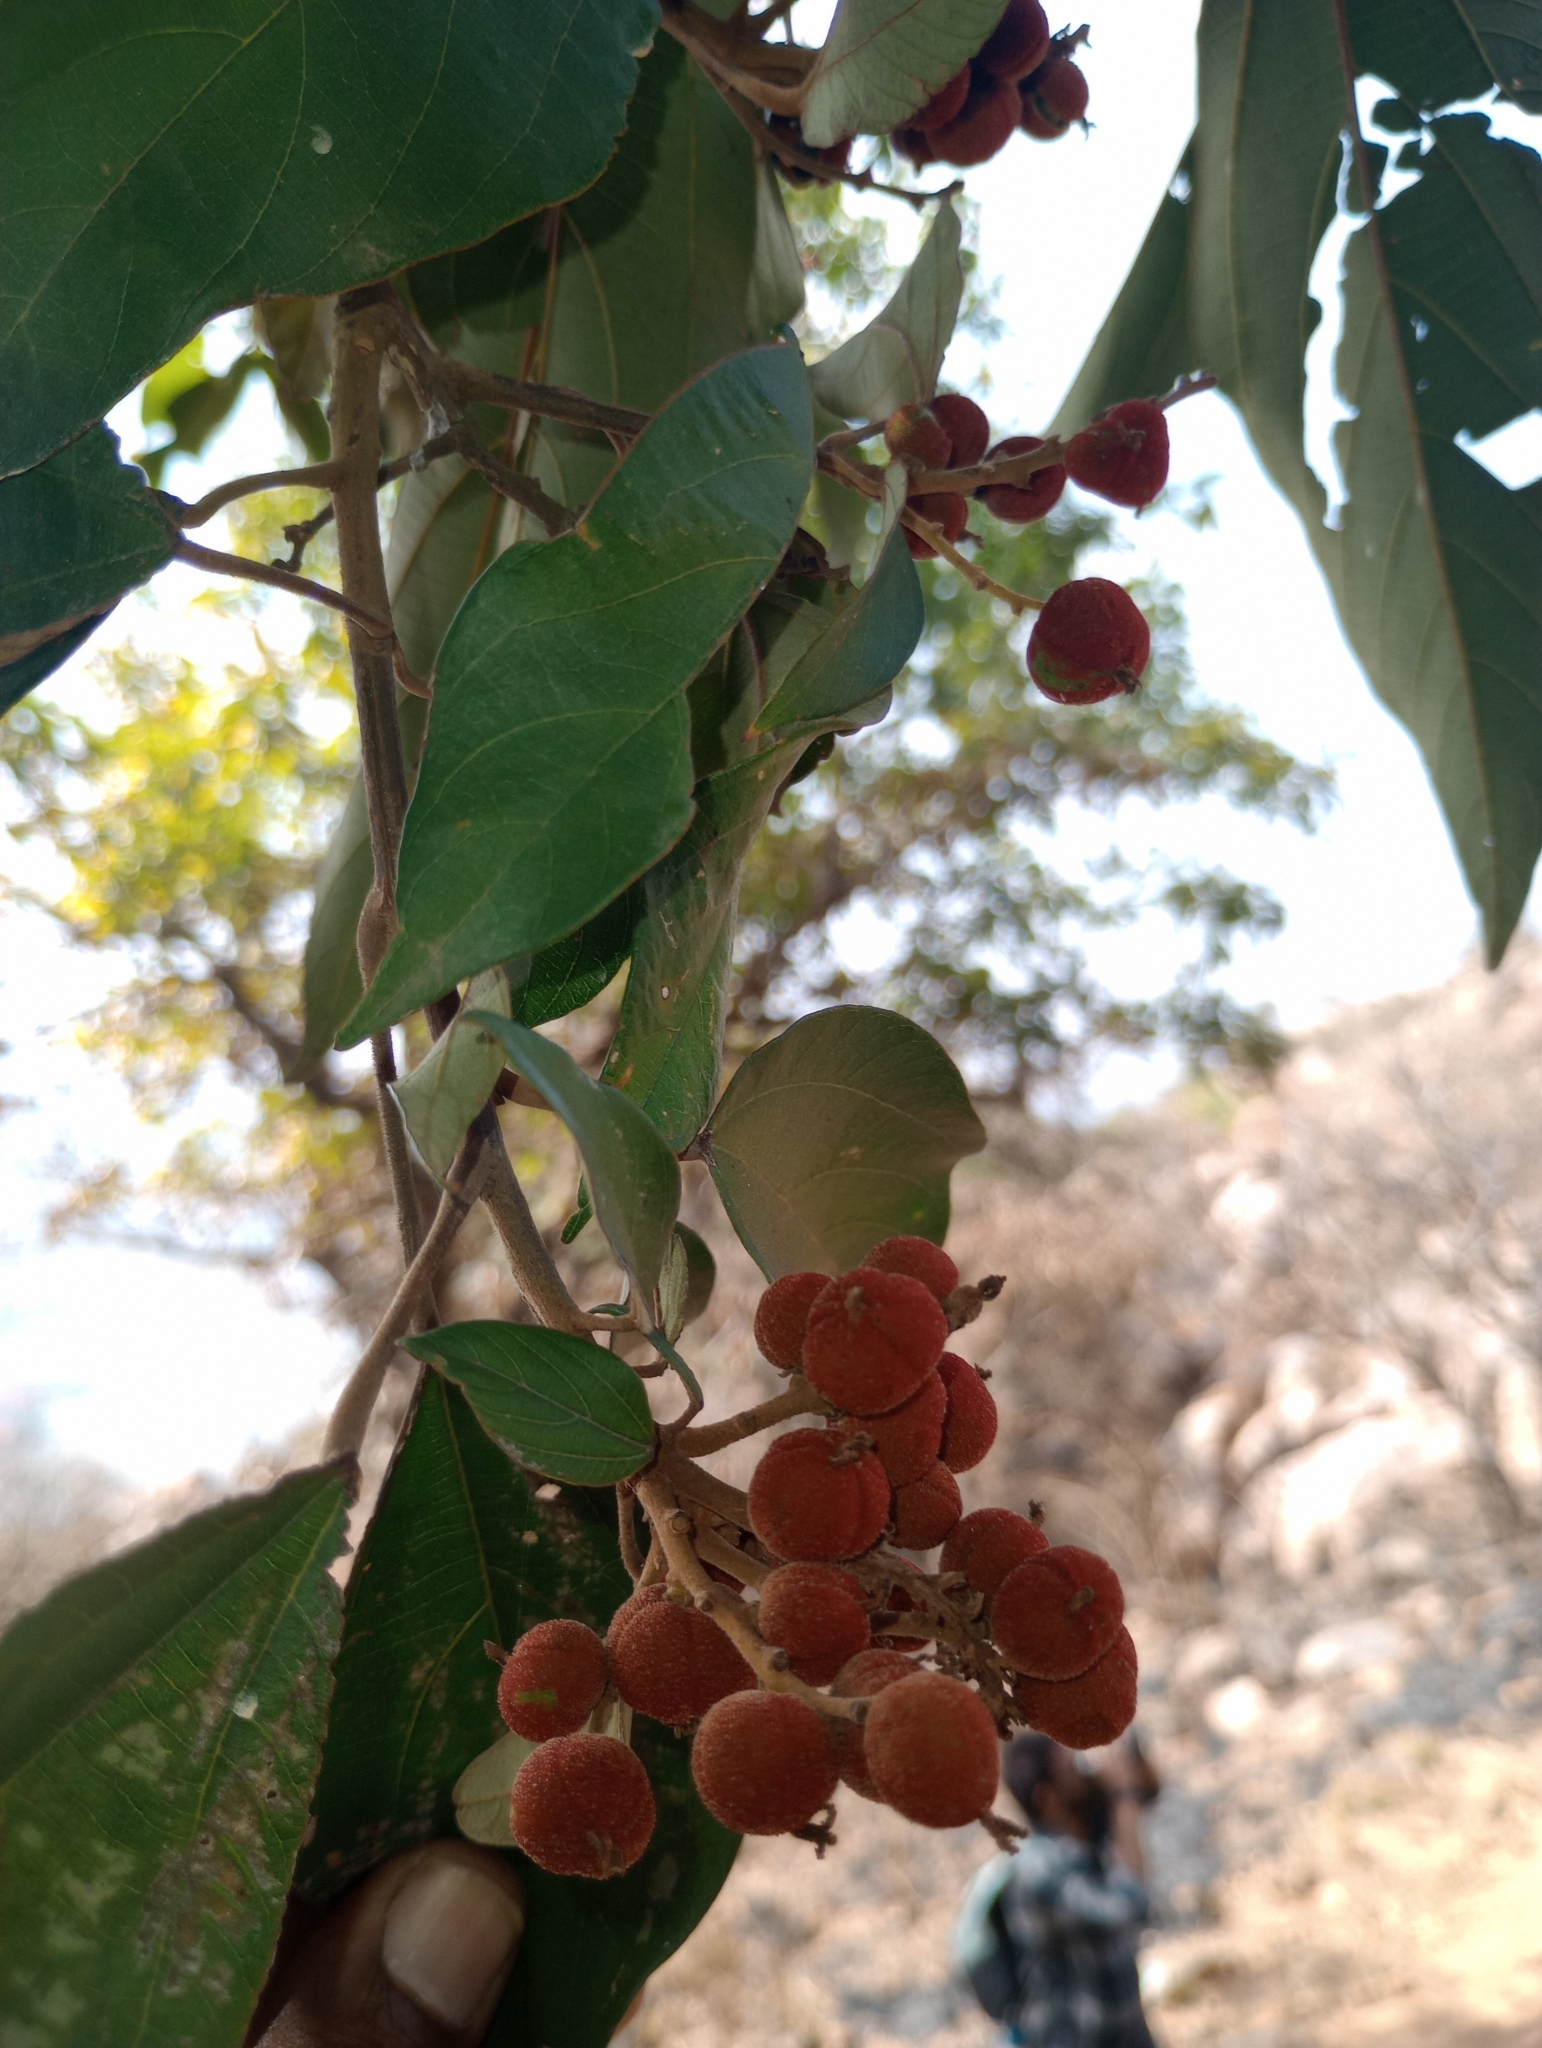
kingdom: Plantae
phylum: Tracheophyta
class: Magnoliopsida
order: Malpighiales
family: Euphorbiaceae
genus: Mallotus
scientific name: Mallotus philippensis
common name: Kamala tree
